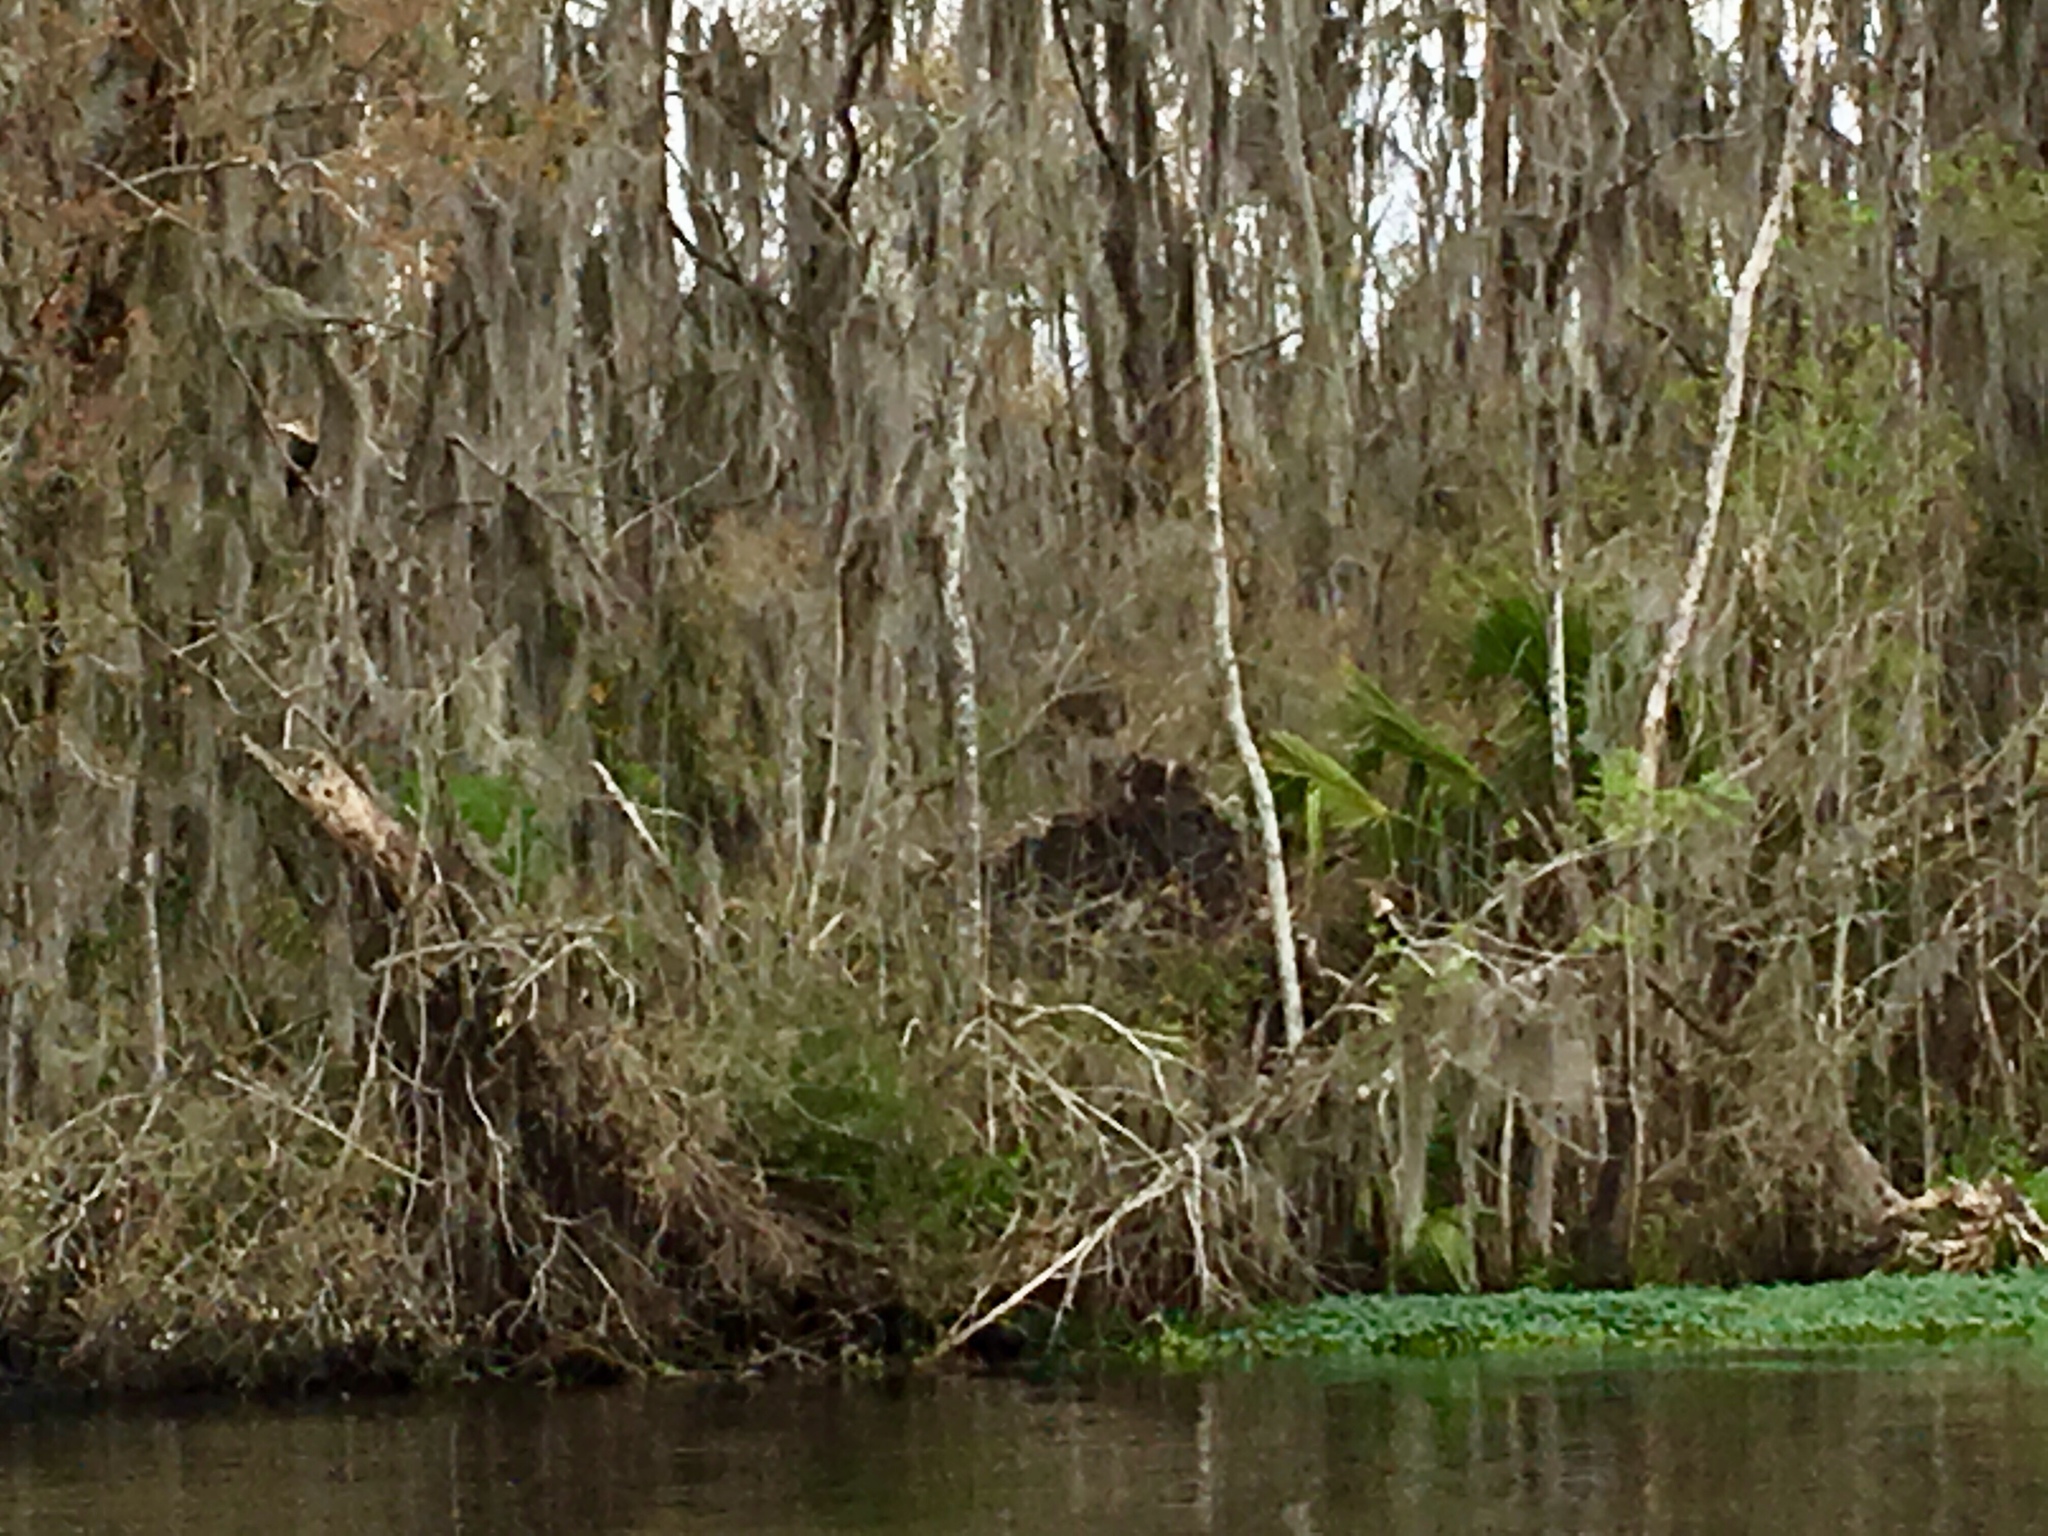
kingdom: Animalia
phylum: Chordata
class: Aves
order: Suliformes
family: Anhingidae
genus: Anhinga
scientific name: Anhinga anhinga
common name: Anhinga
